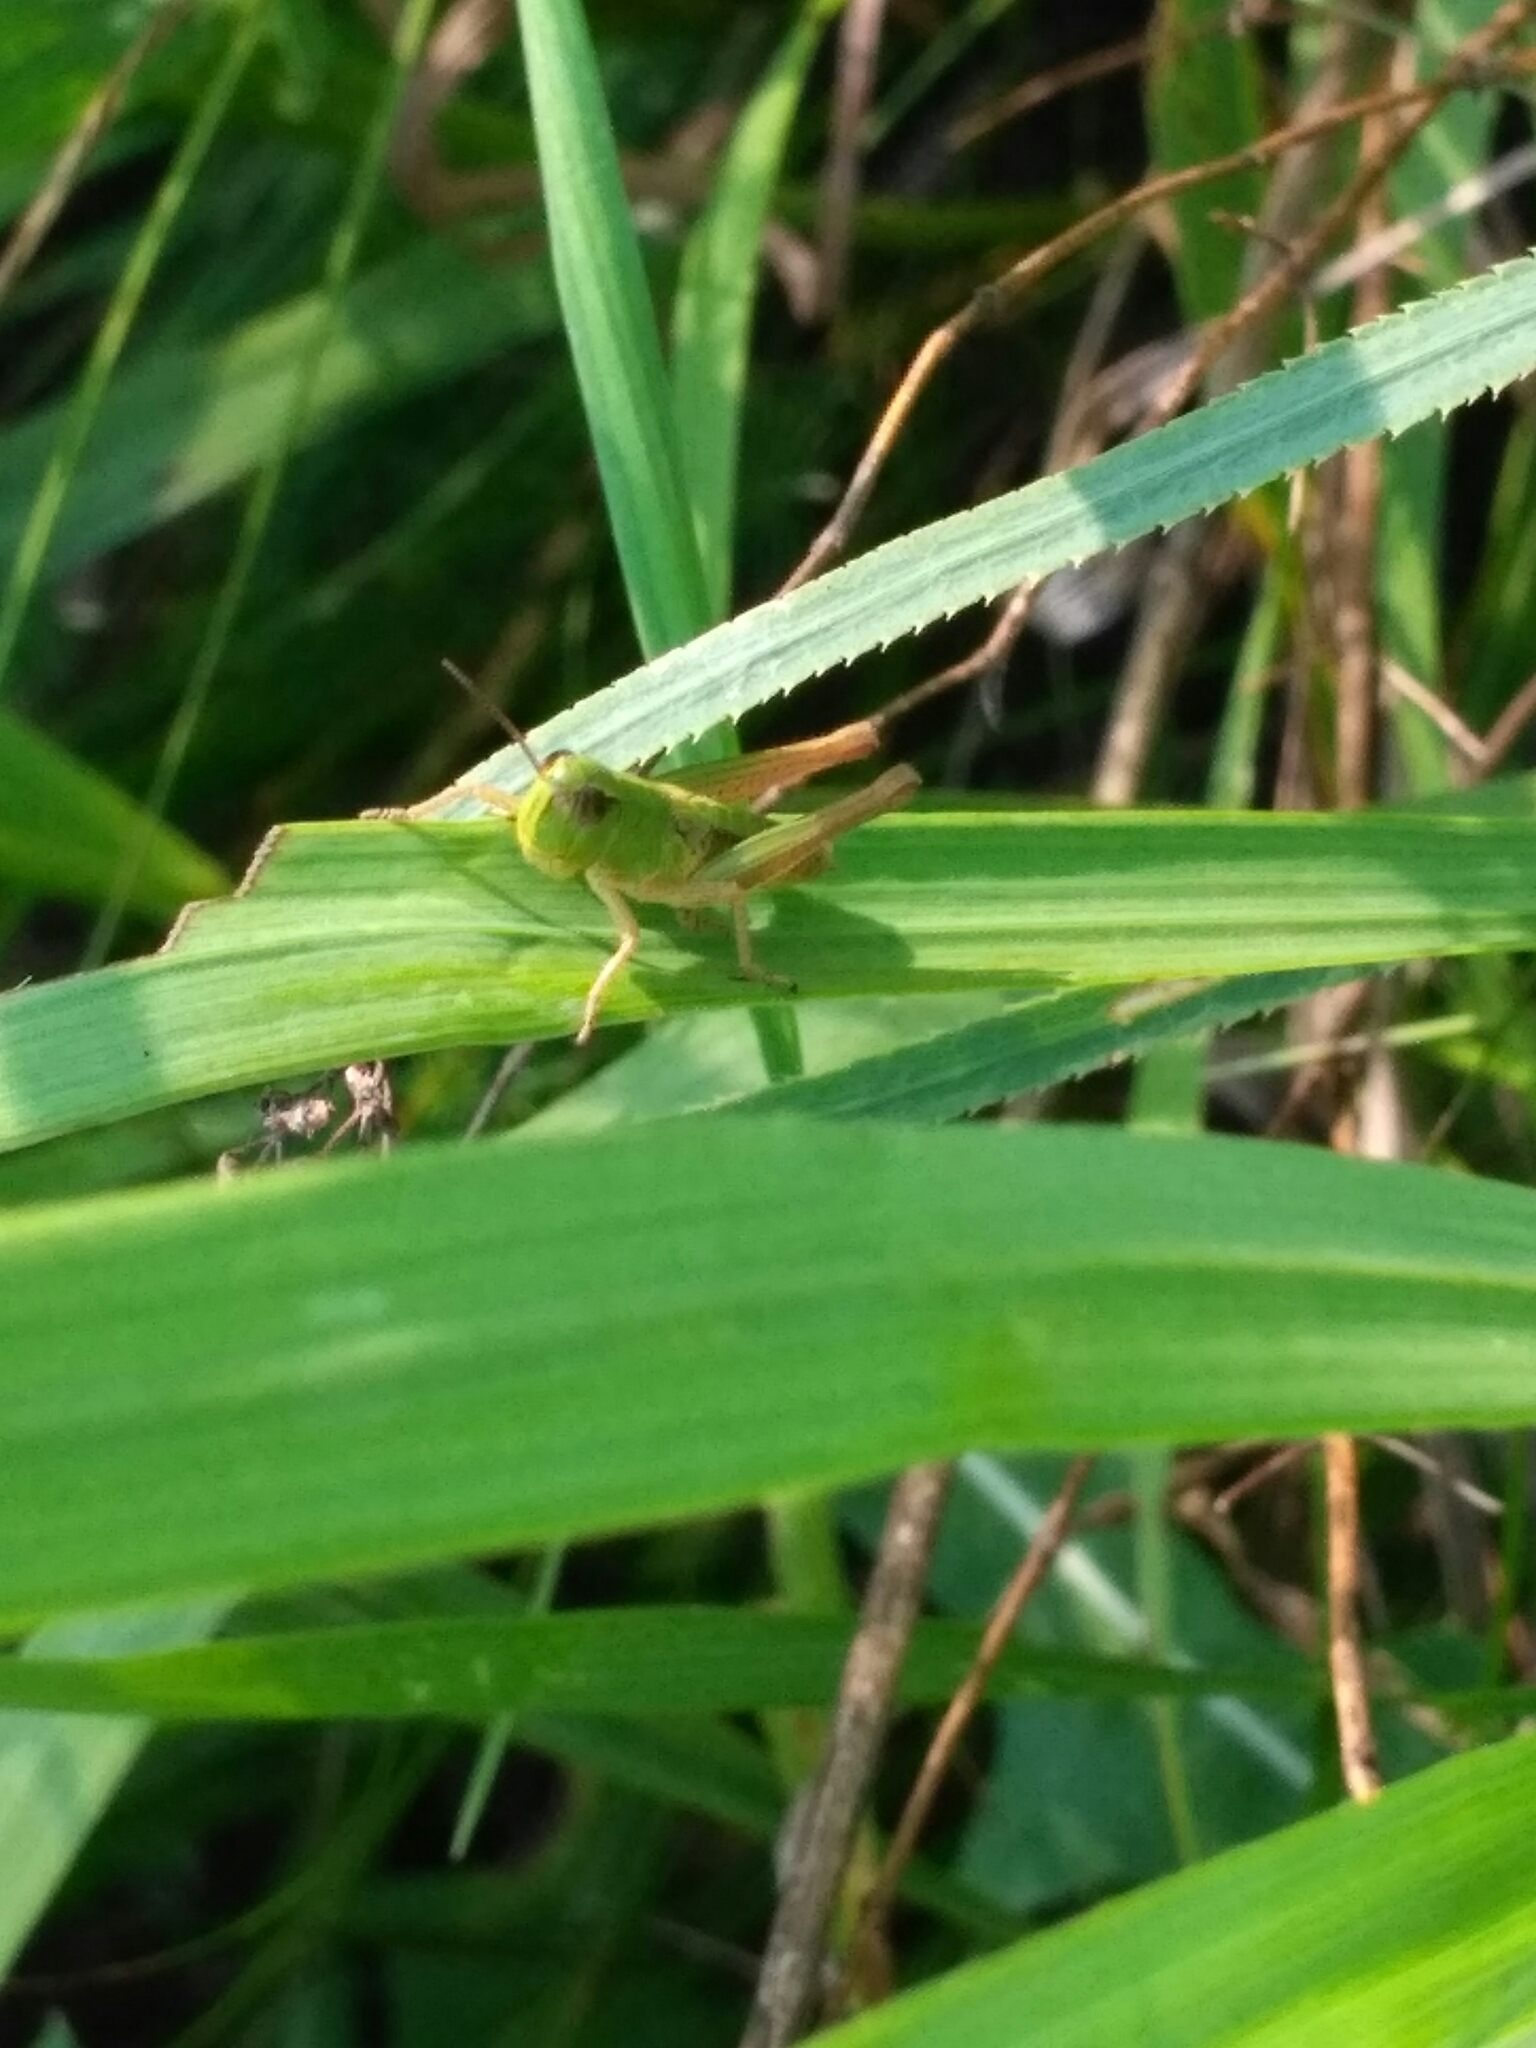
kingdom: Animalia
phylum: Arthropoda
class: Insecta
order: Orthoptera
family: Acrididae
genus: Pseudochorthippus
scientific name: Pseudochorthippus parallelus
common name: Meadow grasshopper
